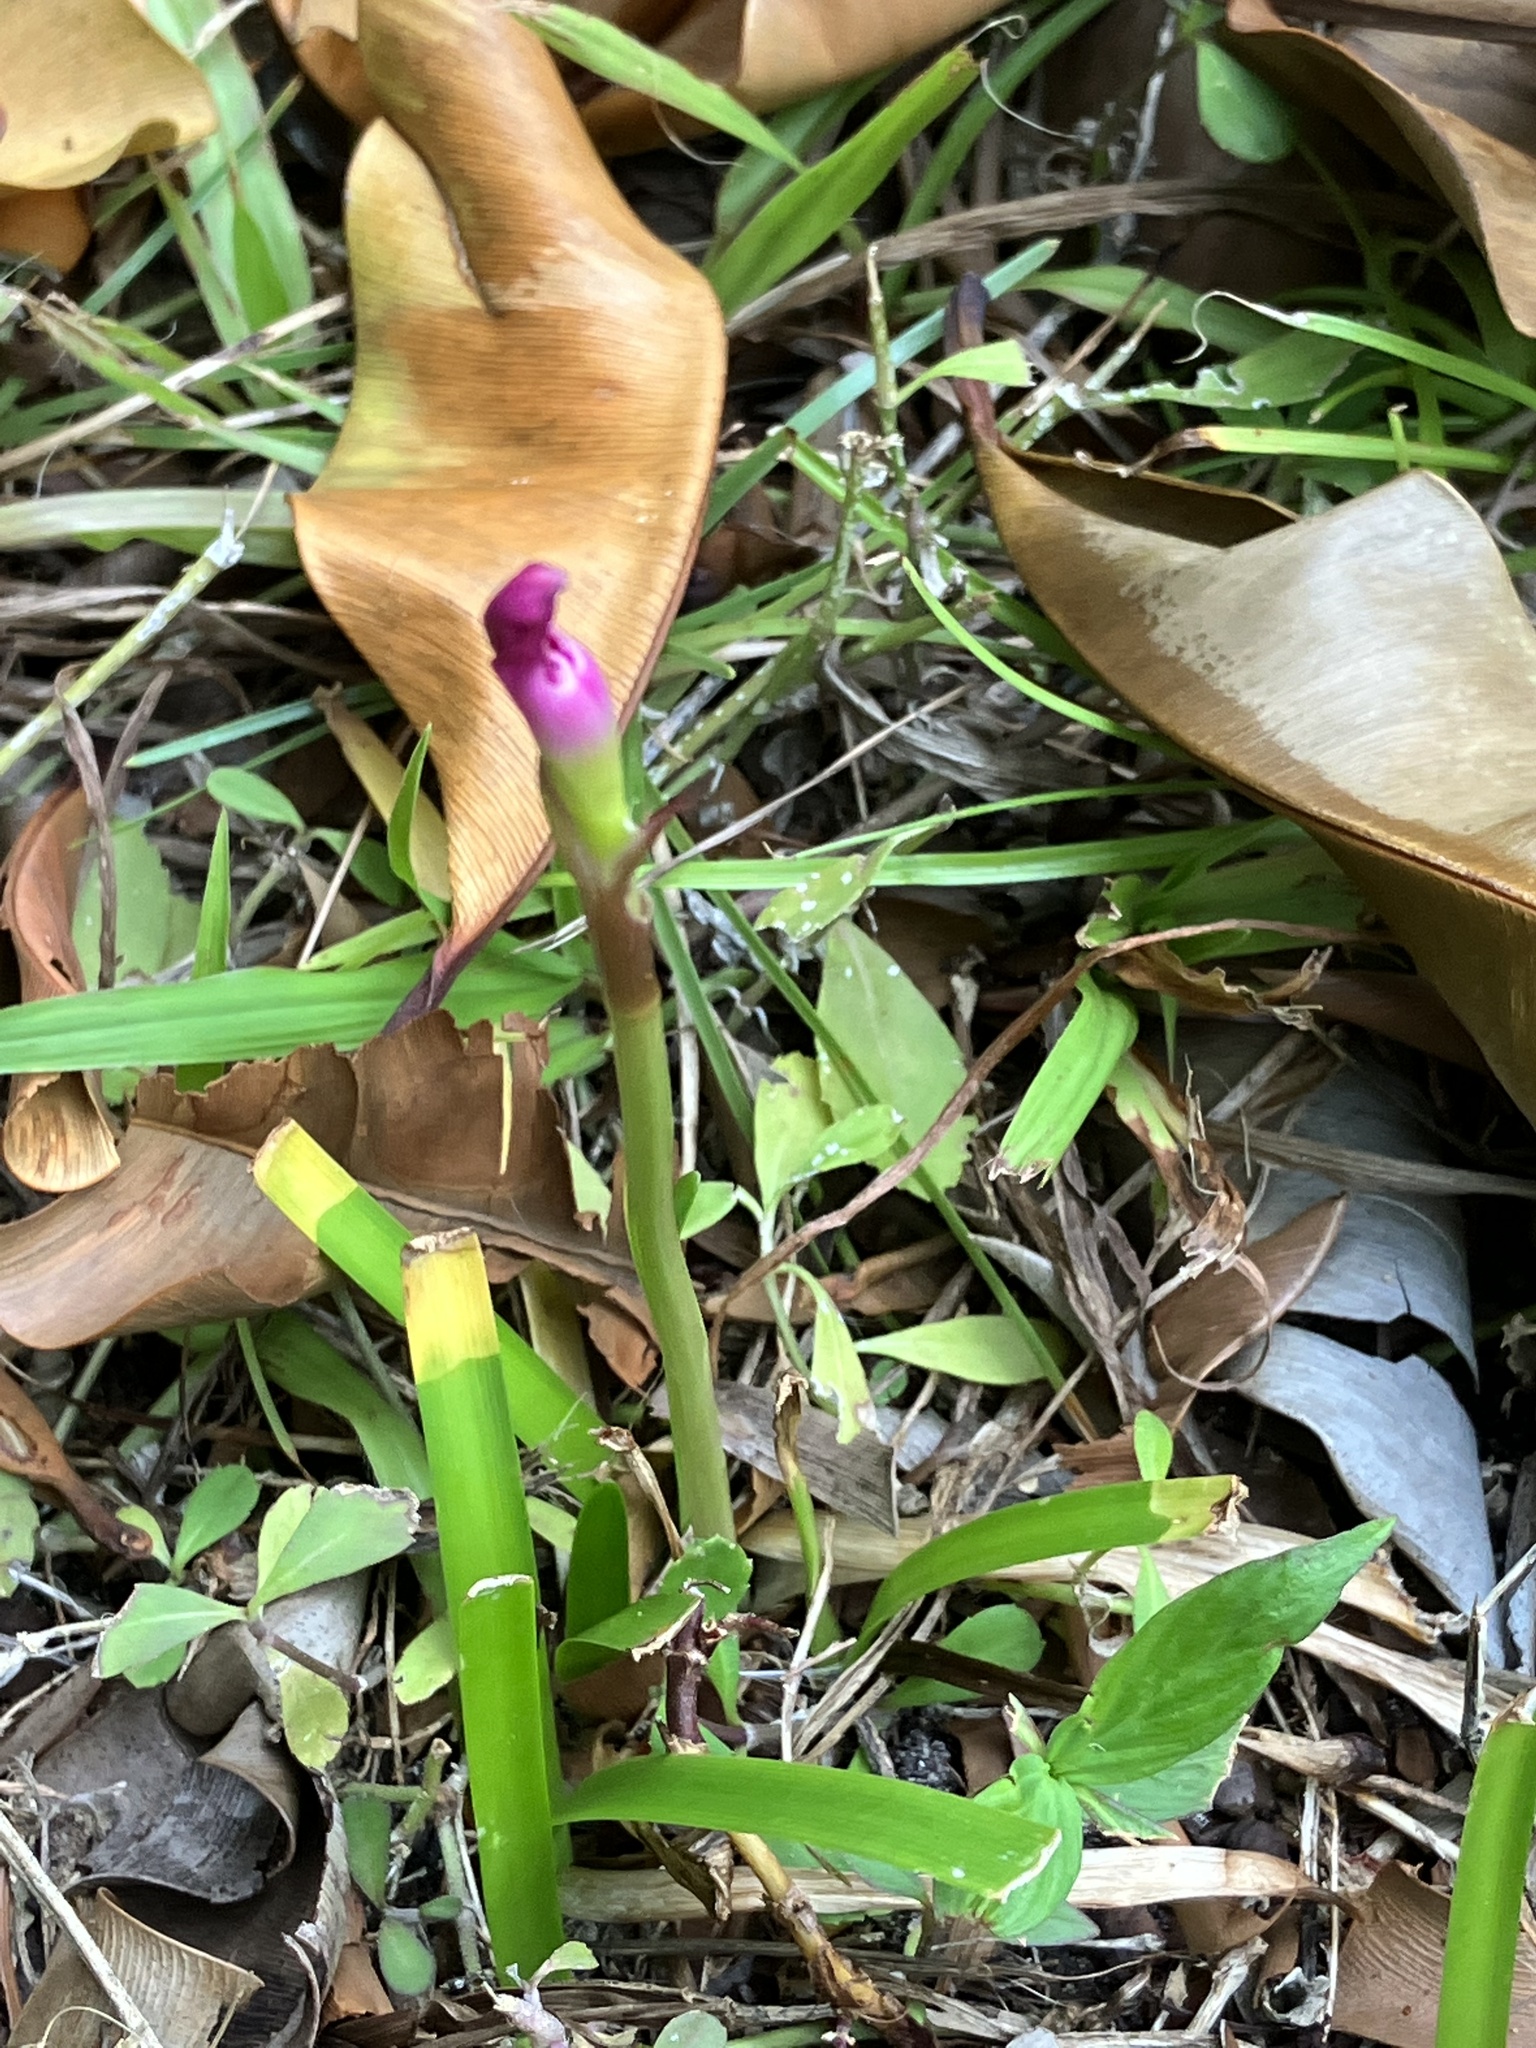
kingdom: Plantae
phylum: Tracheophyta
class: Liliopsida
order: Asparagales
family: Amaryllidaceae
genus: Zephyranthes
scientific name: Zephyranthes rosea
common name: Cuban zephyrlily
